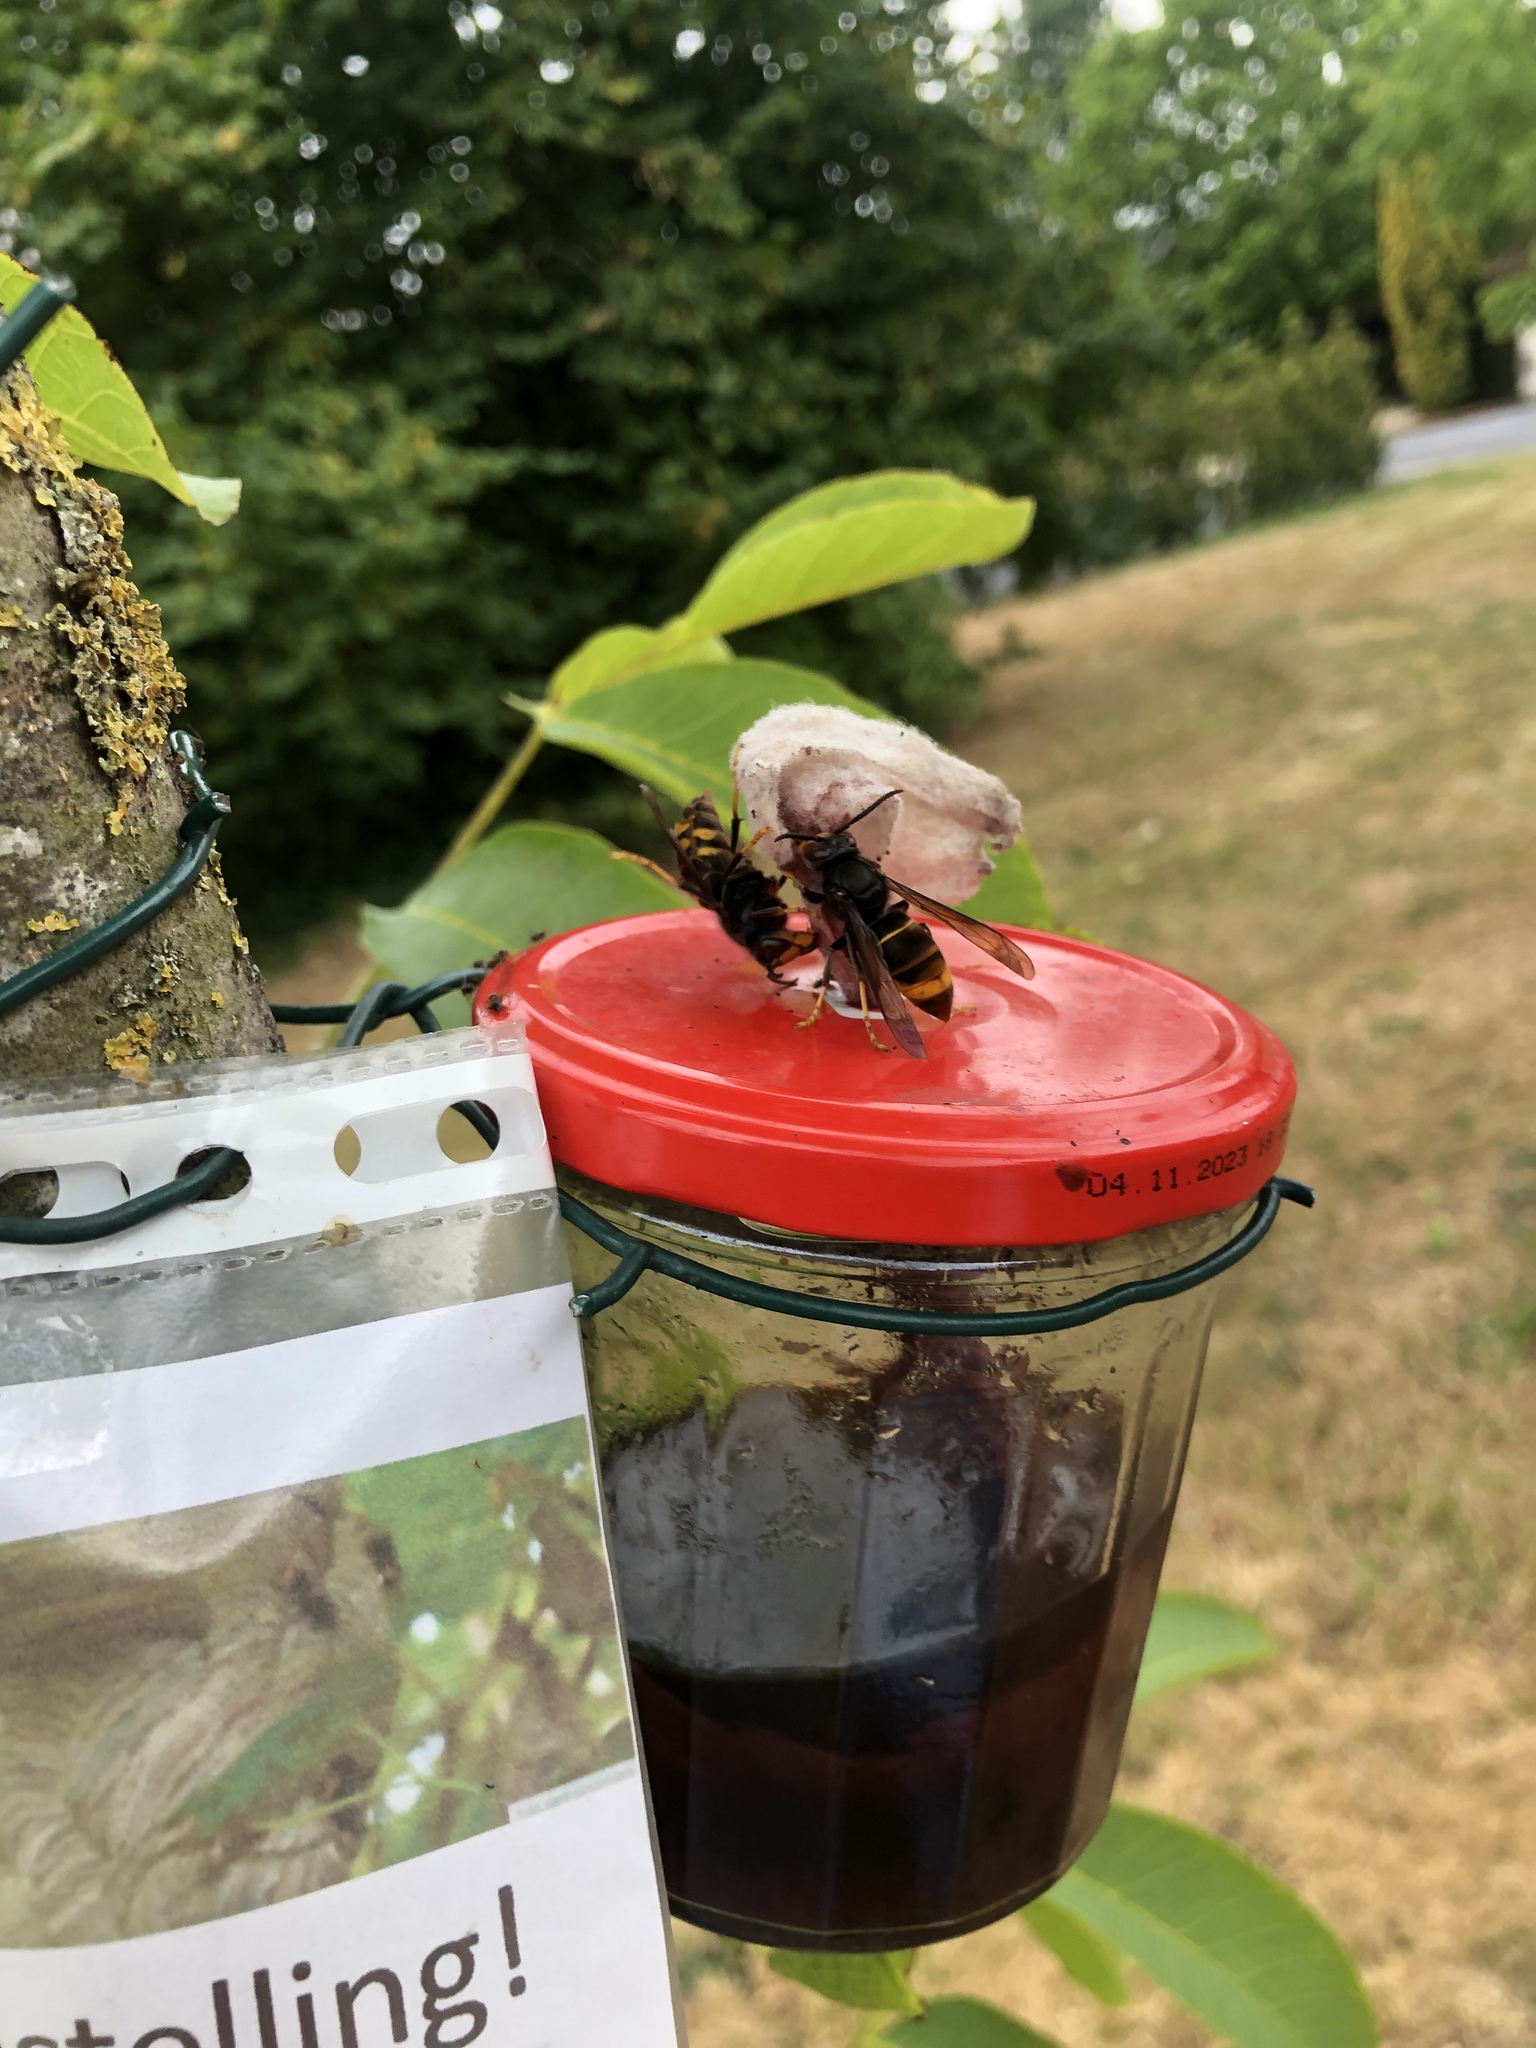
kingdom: Animalia
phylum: Arthropoda
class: Insecta
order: Hymenoptera
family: Vespidae
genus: Vespa
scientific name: Vespa velutina
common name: Asian hornet
